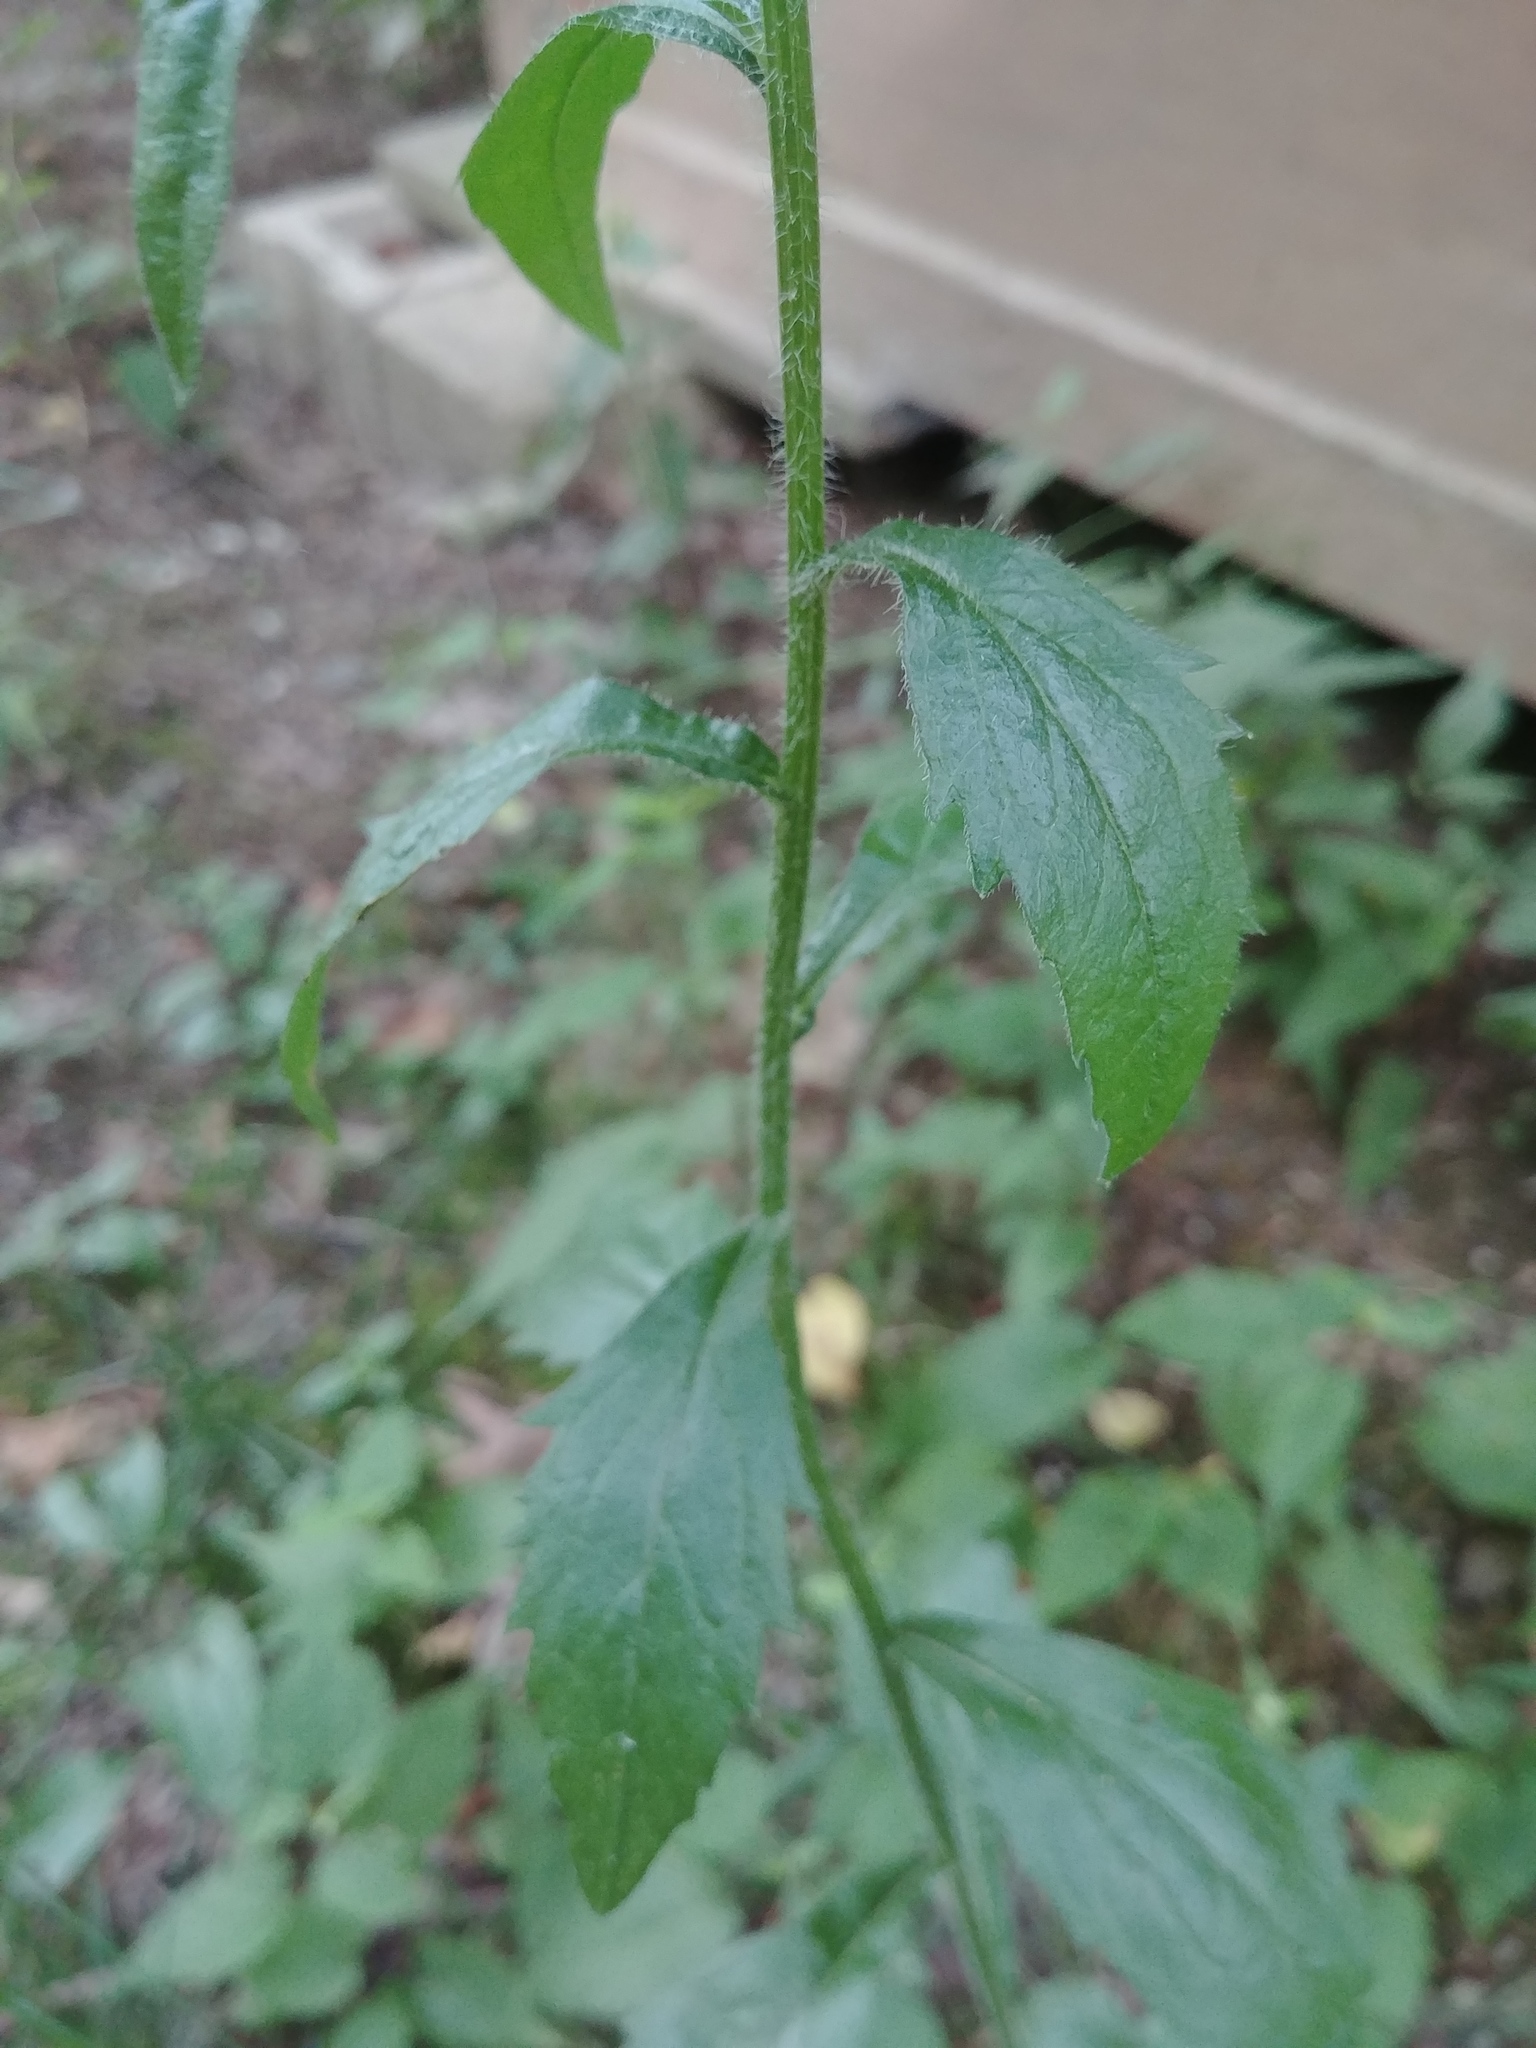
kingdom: Plantae
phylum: Tracheophyta
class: Magnoliopsida
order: Asterales
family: Asteraceae
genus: Erigeron
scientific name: Erigeron annuus
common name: Tall fleabane
